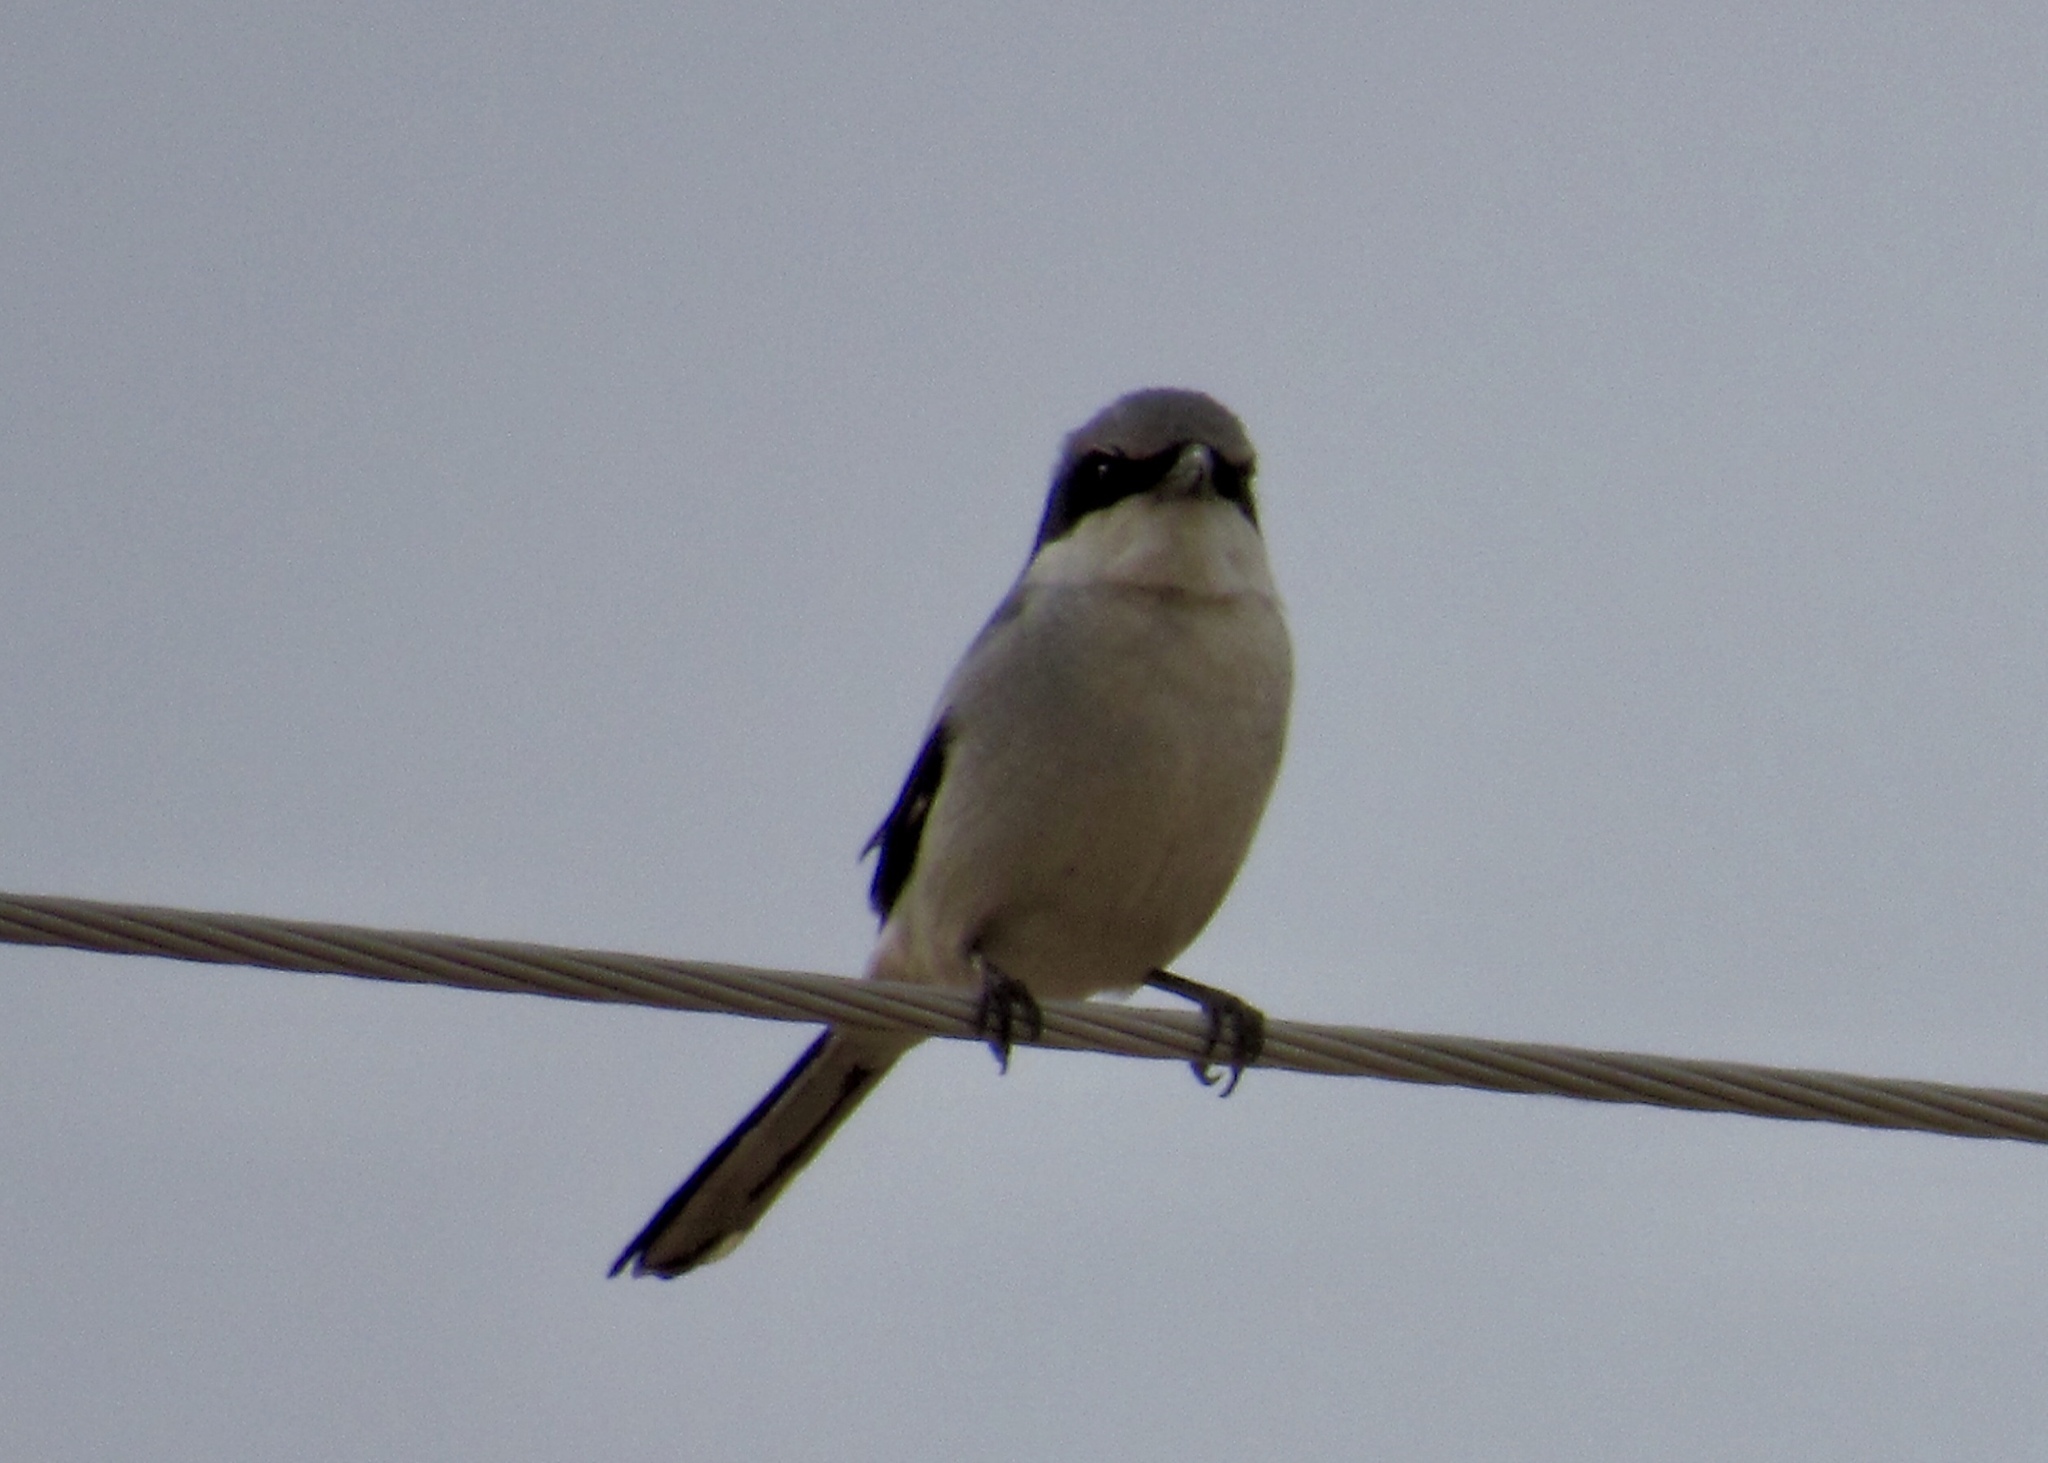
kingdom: Animalia
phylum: Chordata
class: Aves
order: Passeriformes
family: Laniidae
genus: Lanius
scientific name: Lanius ludovicianus
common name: Loggerhead shrike
